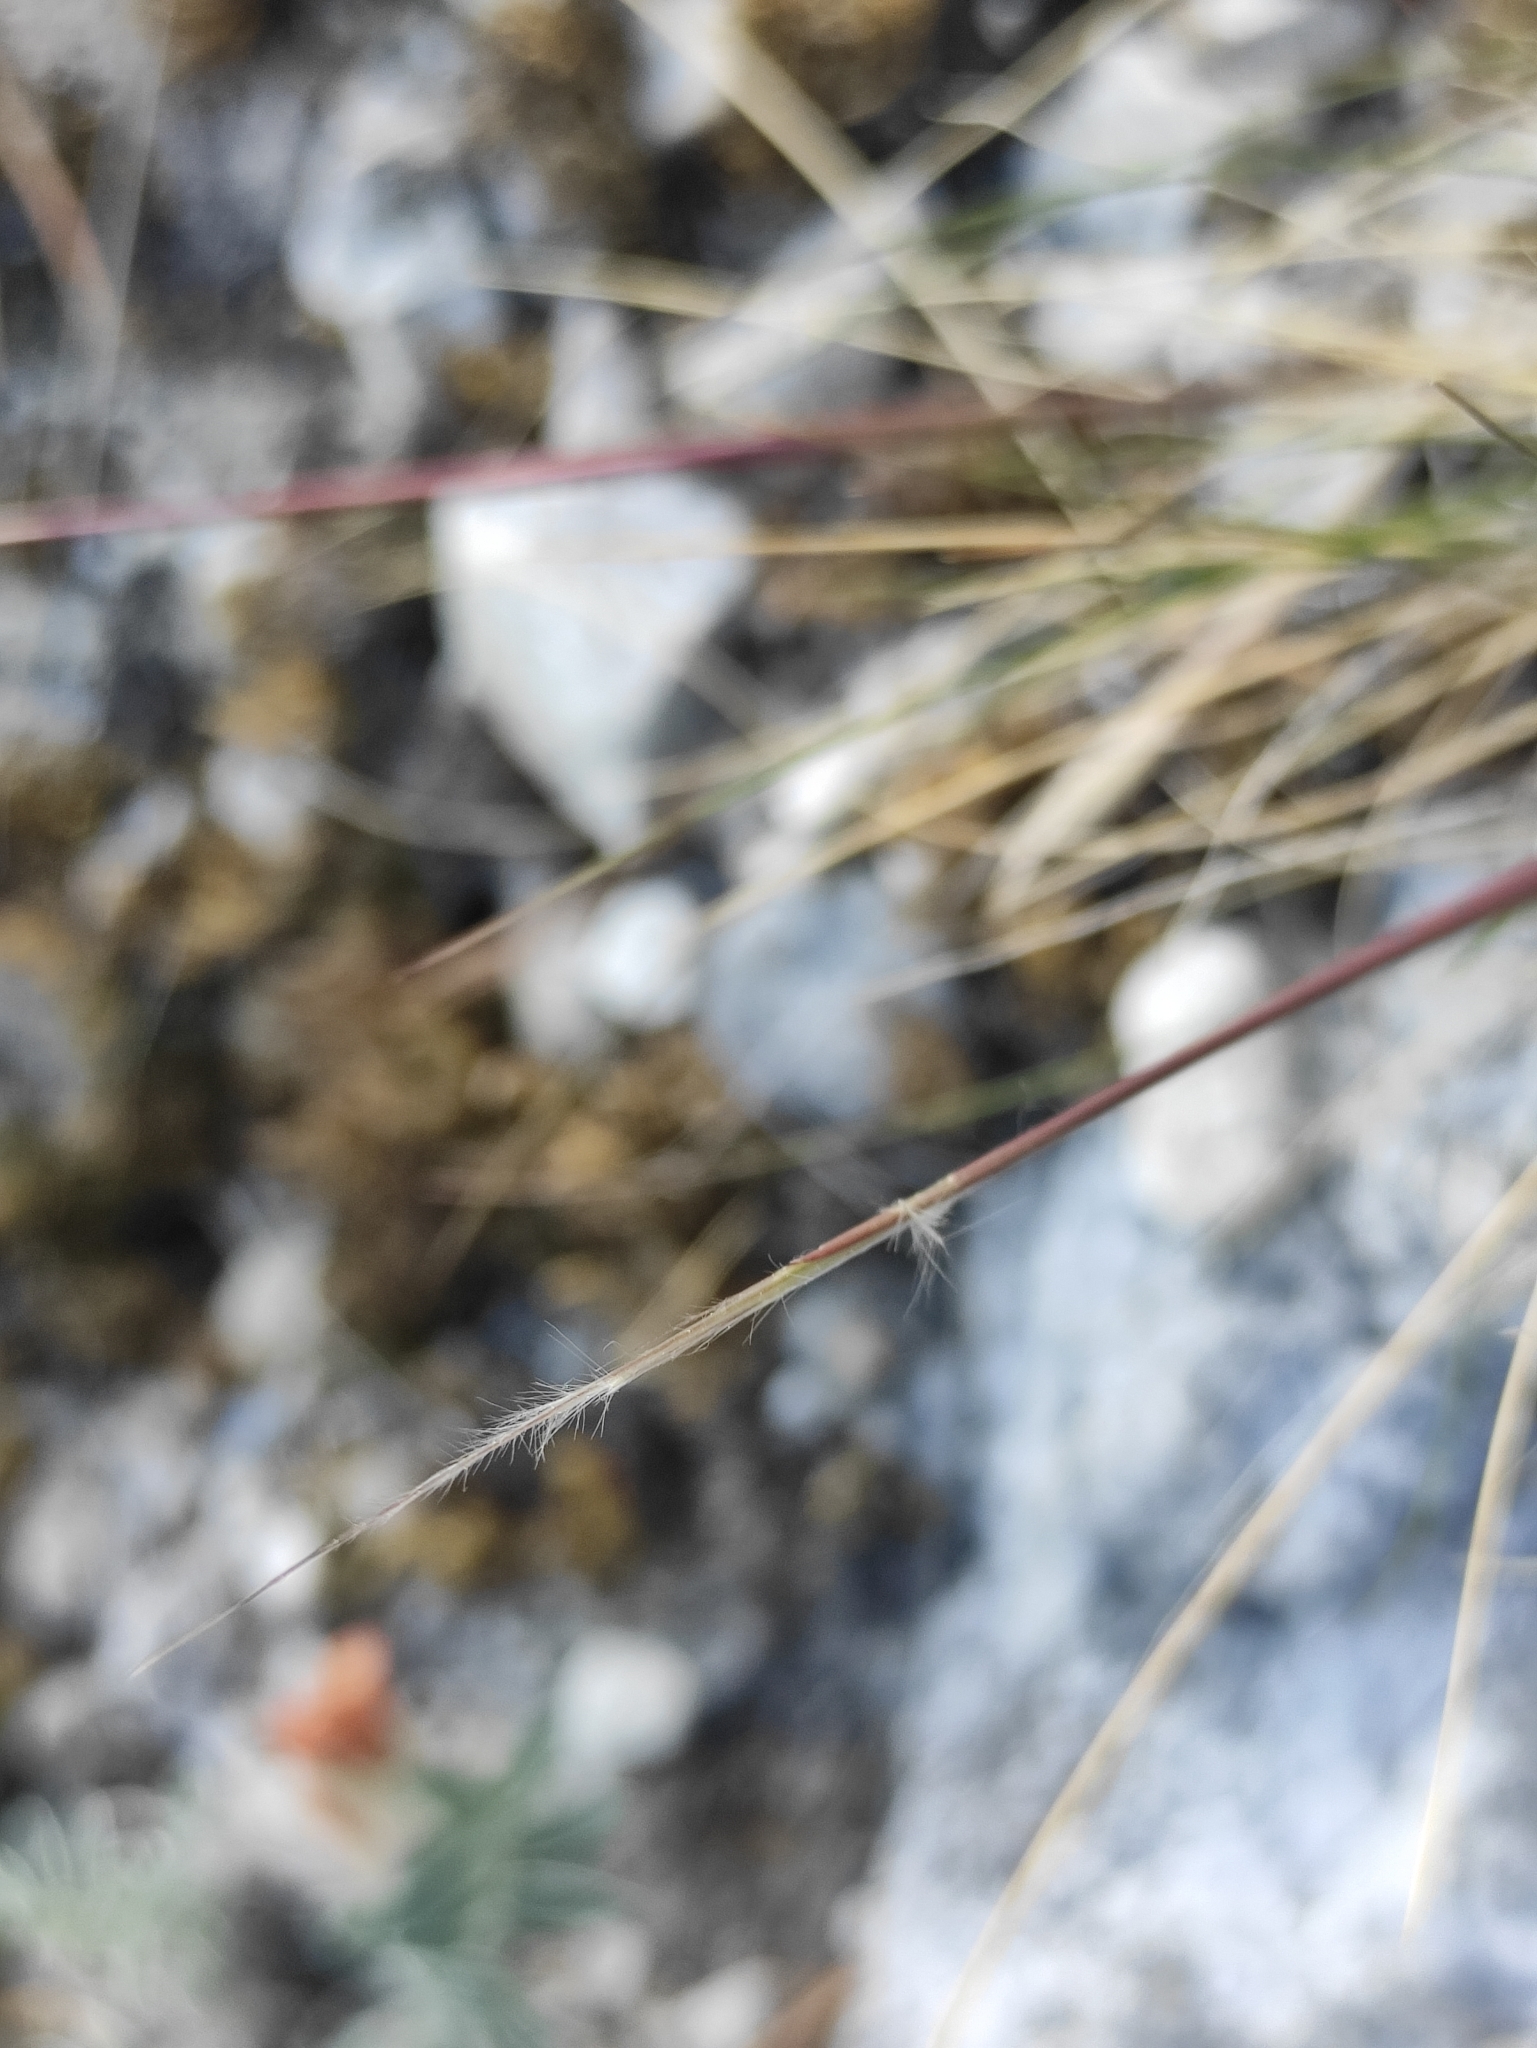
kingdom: Plantae
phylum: Tracheophyta
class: Liliopsida
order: Poales
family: Poaceae
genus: Stipa
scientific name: Stipa glareosa
